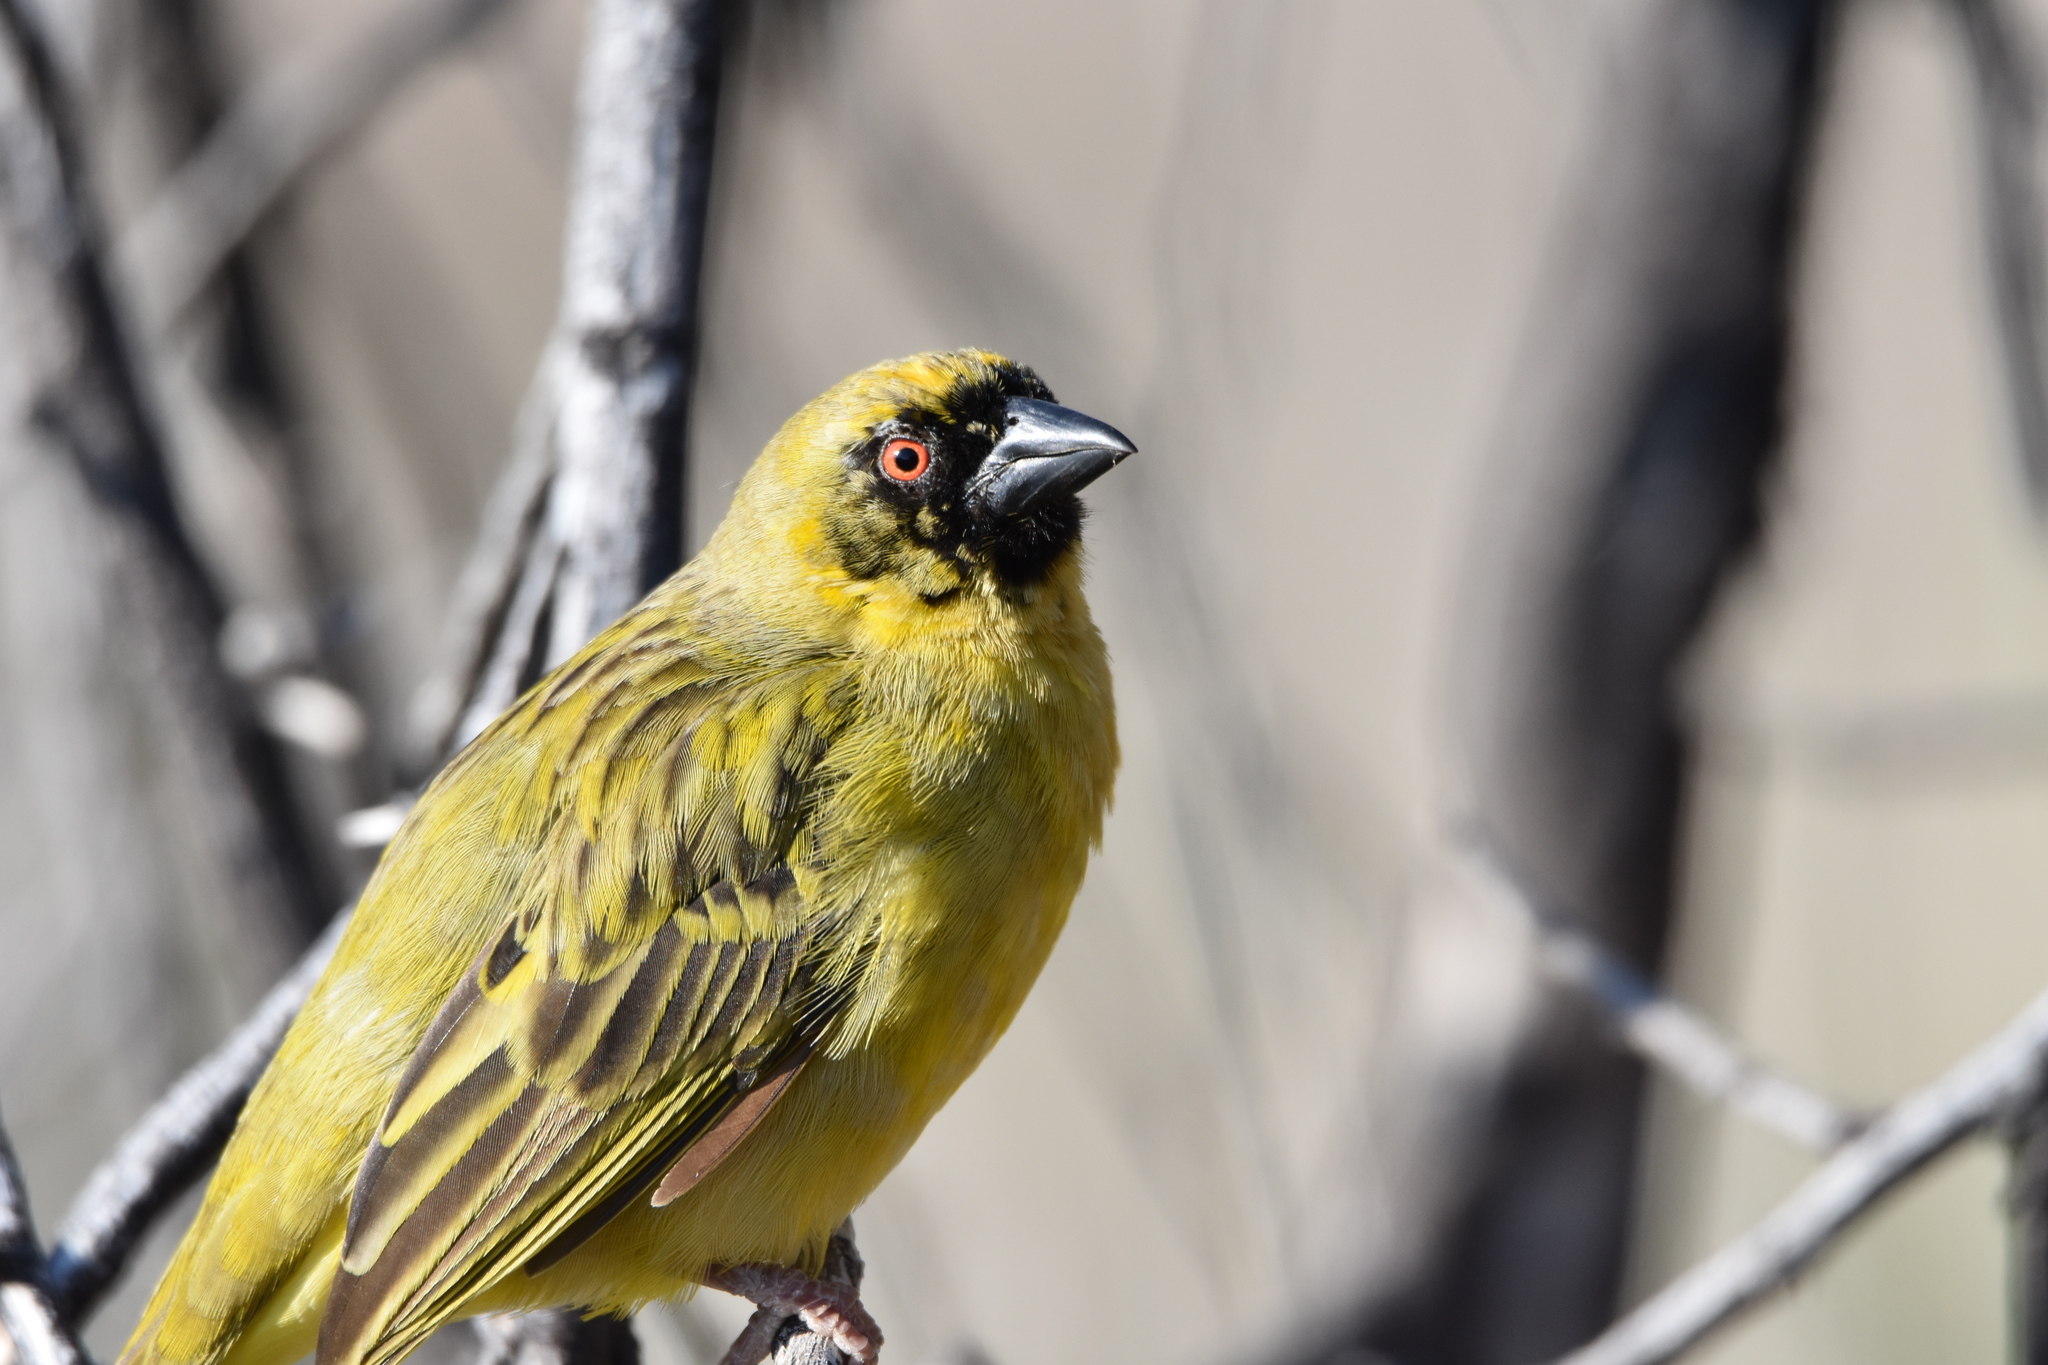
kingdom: Animalia
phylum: Chordata
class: Aves
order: Passeriformes
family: Ploceidae
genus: Ploceus
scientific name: Ploceus velatus
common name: Southern masked weaver
